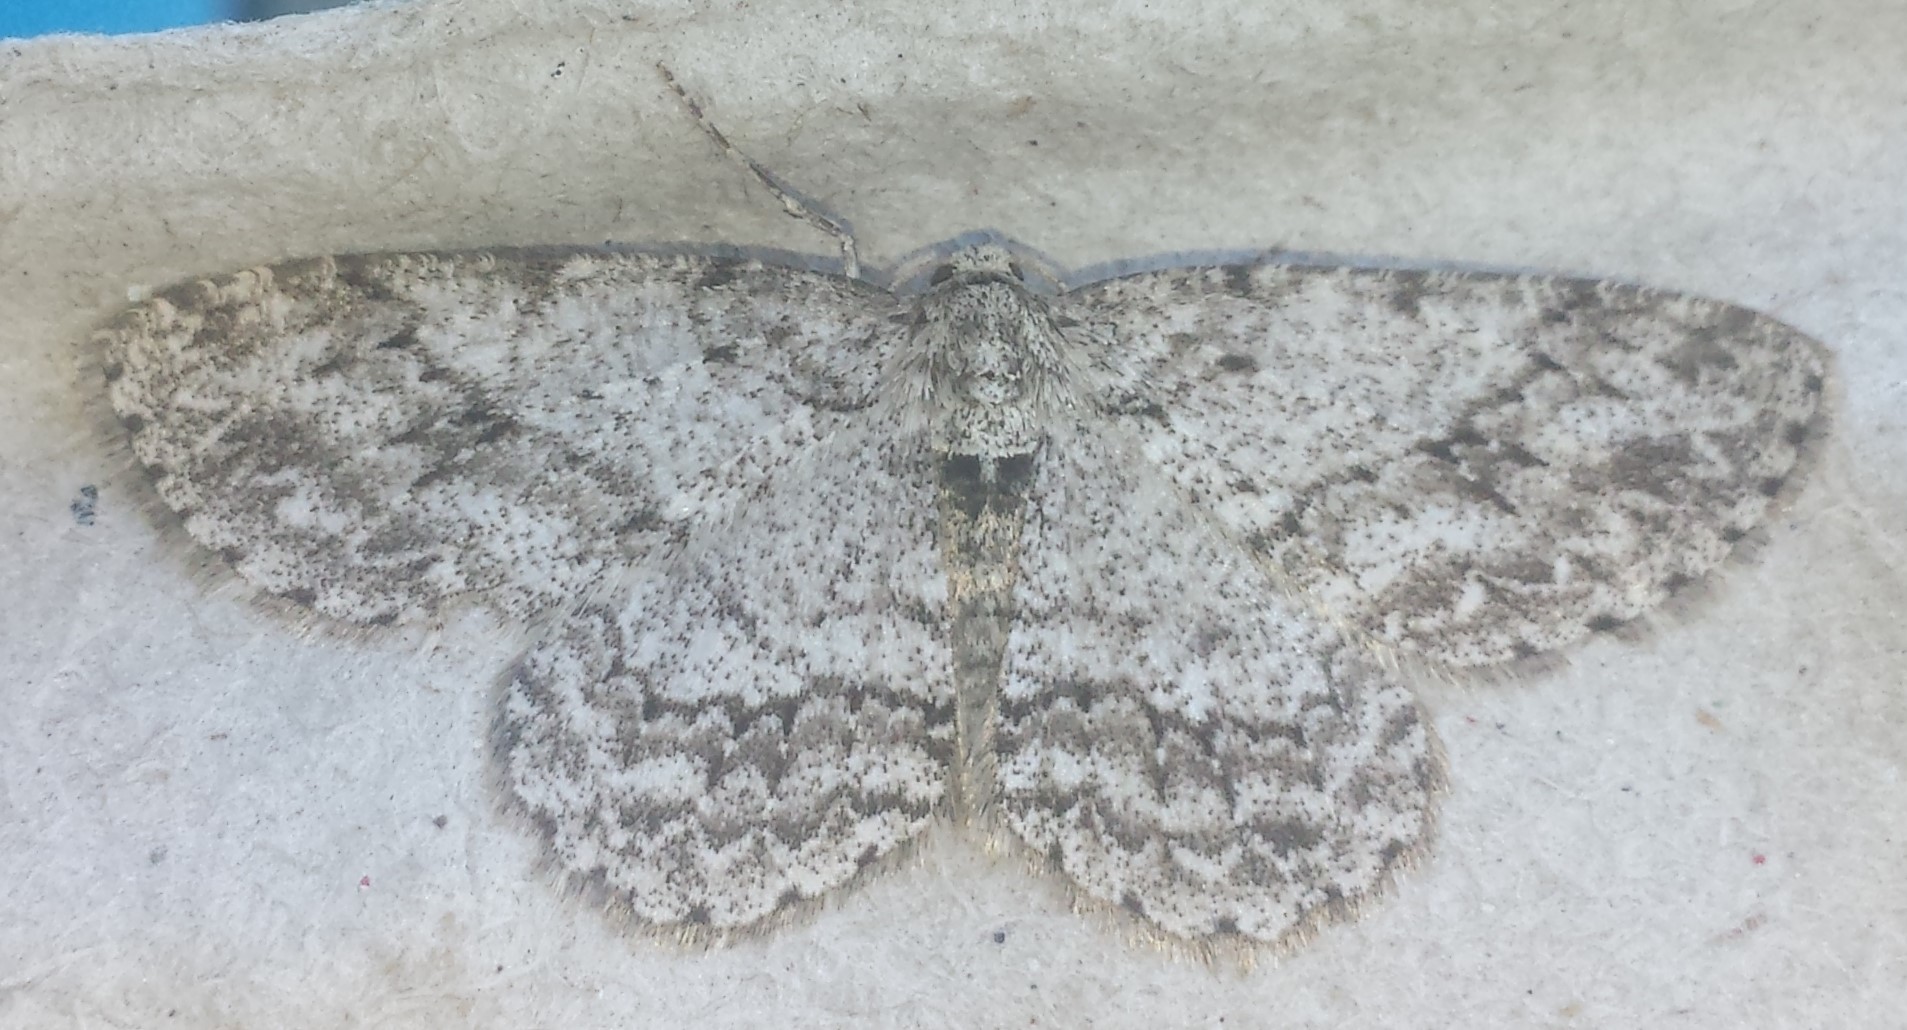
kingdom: Animalia
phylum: Arthropoda
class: Insecta
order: Lepidoptera
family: Geometridae
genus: Ectropis
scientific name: Ectropis crepuscularia
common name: Engrailed
